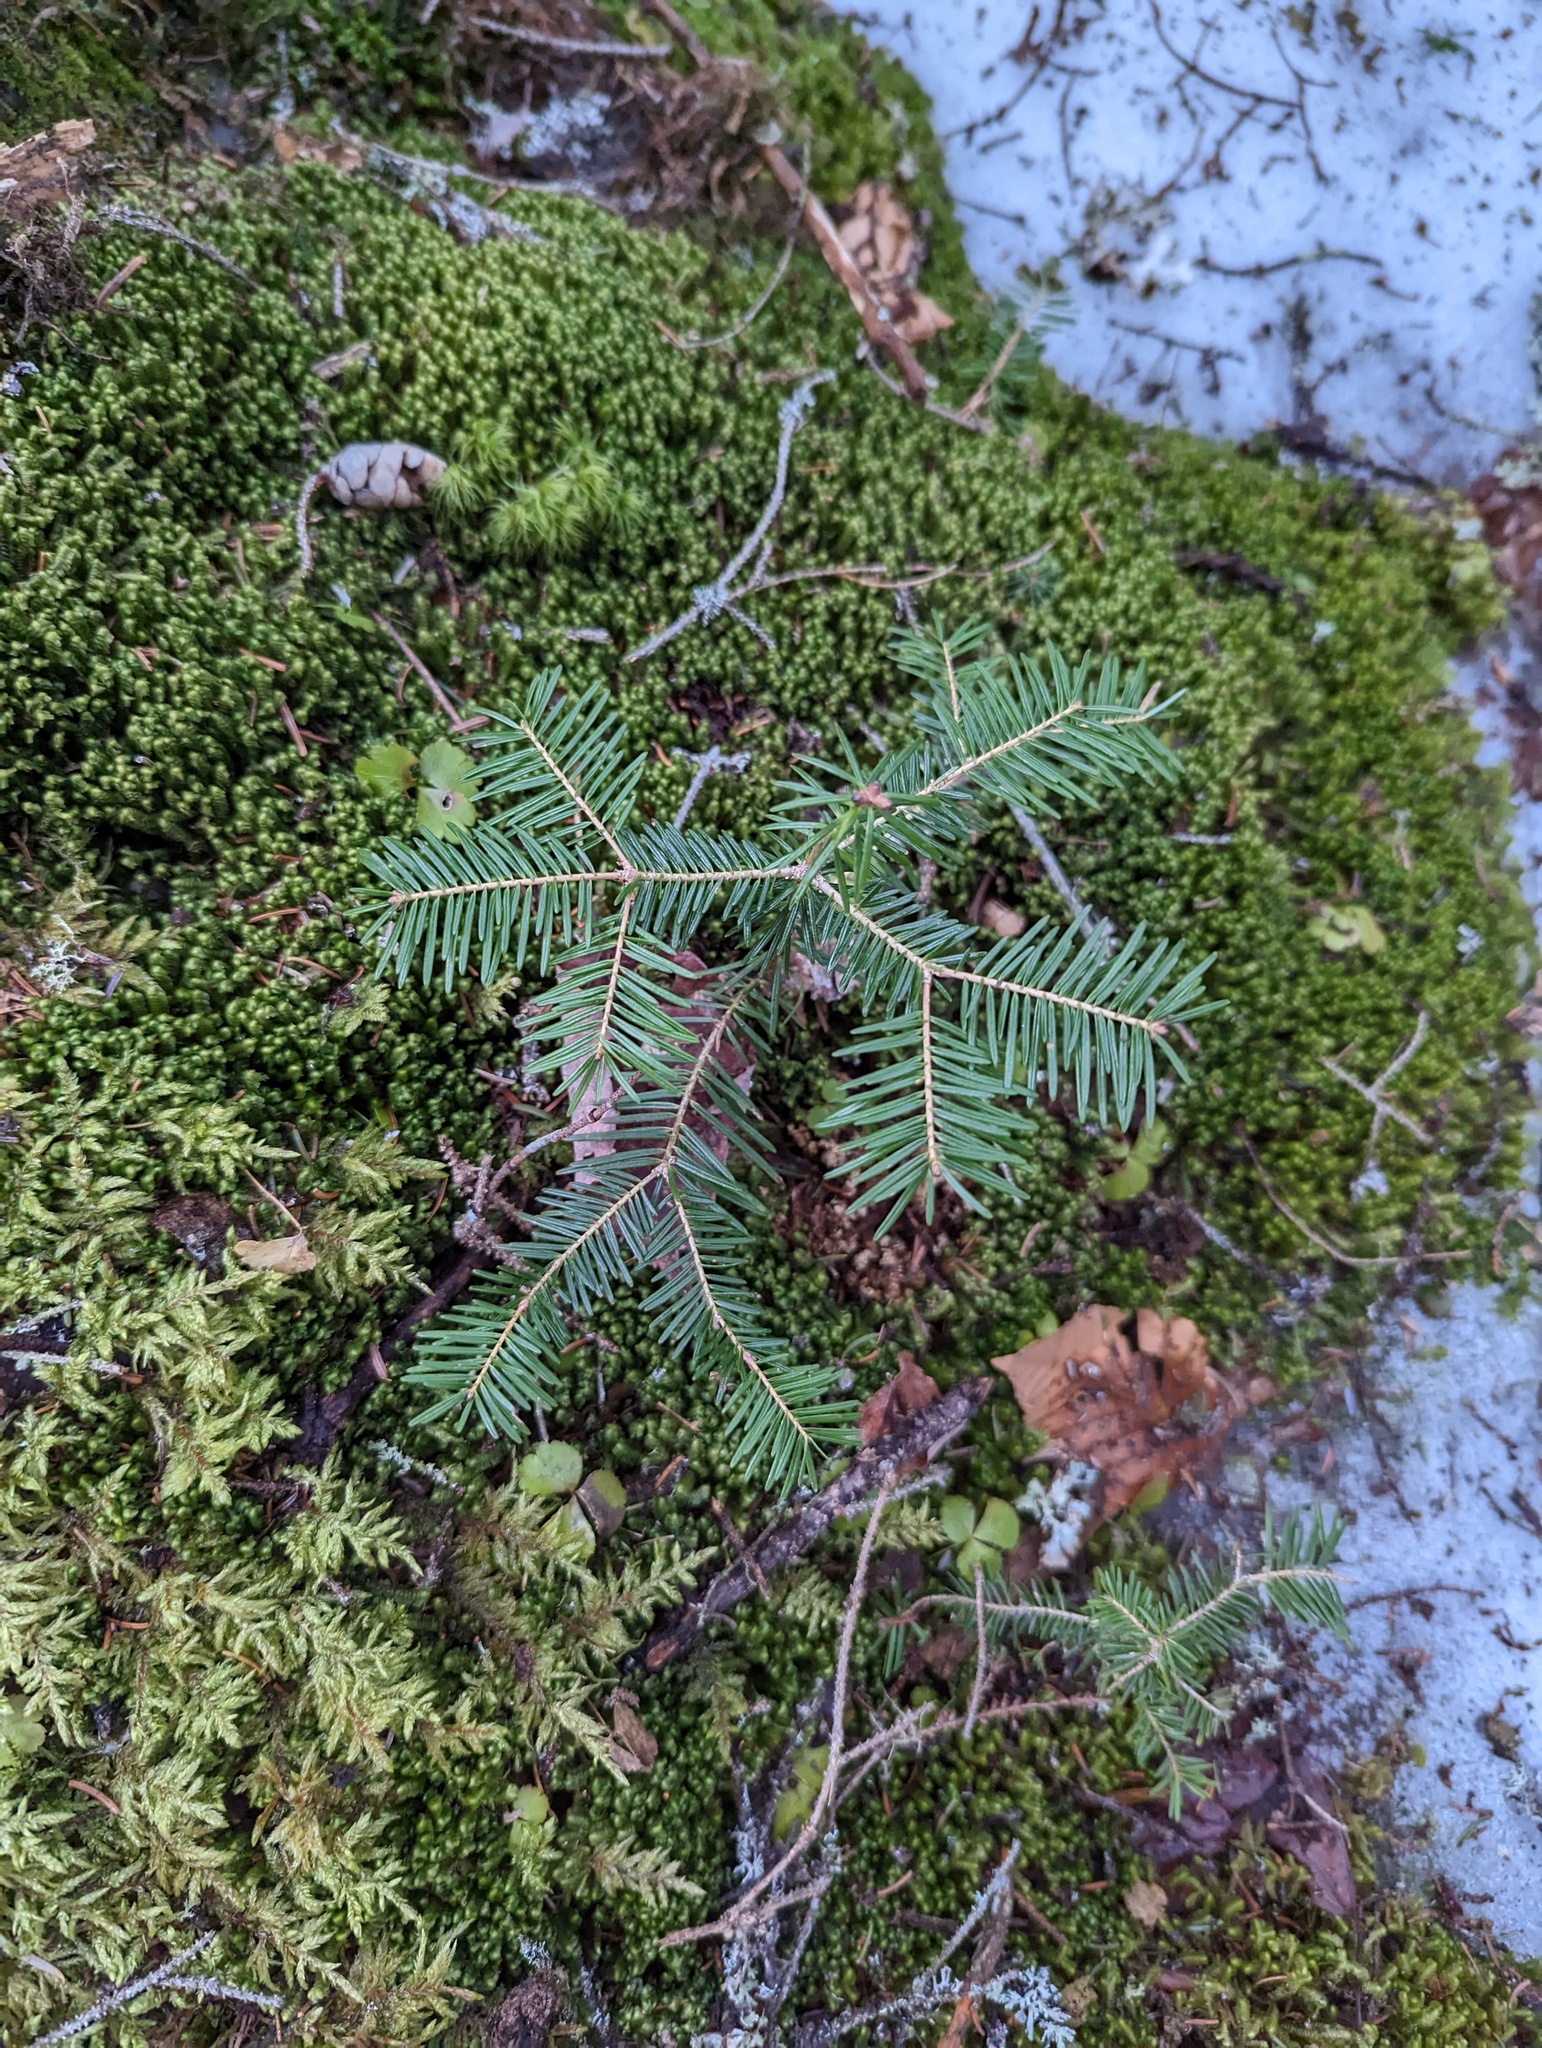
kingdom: Plantae
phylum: Tracheophyta
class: Pinopsida
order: Pinales
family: Pinaceae
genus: Abies
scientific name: Abies balsamea
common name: Balsam fir
